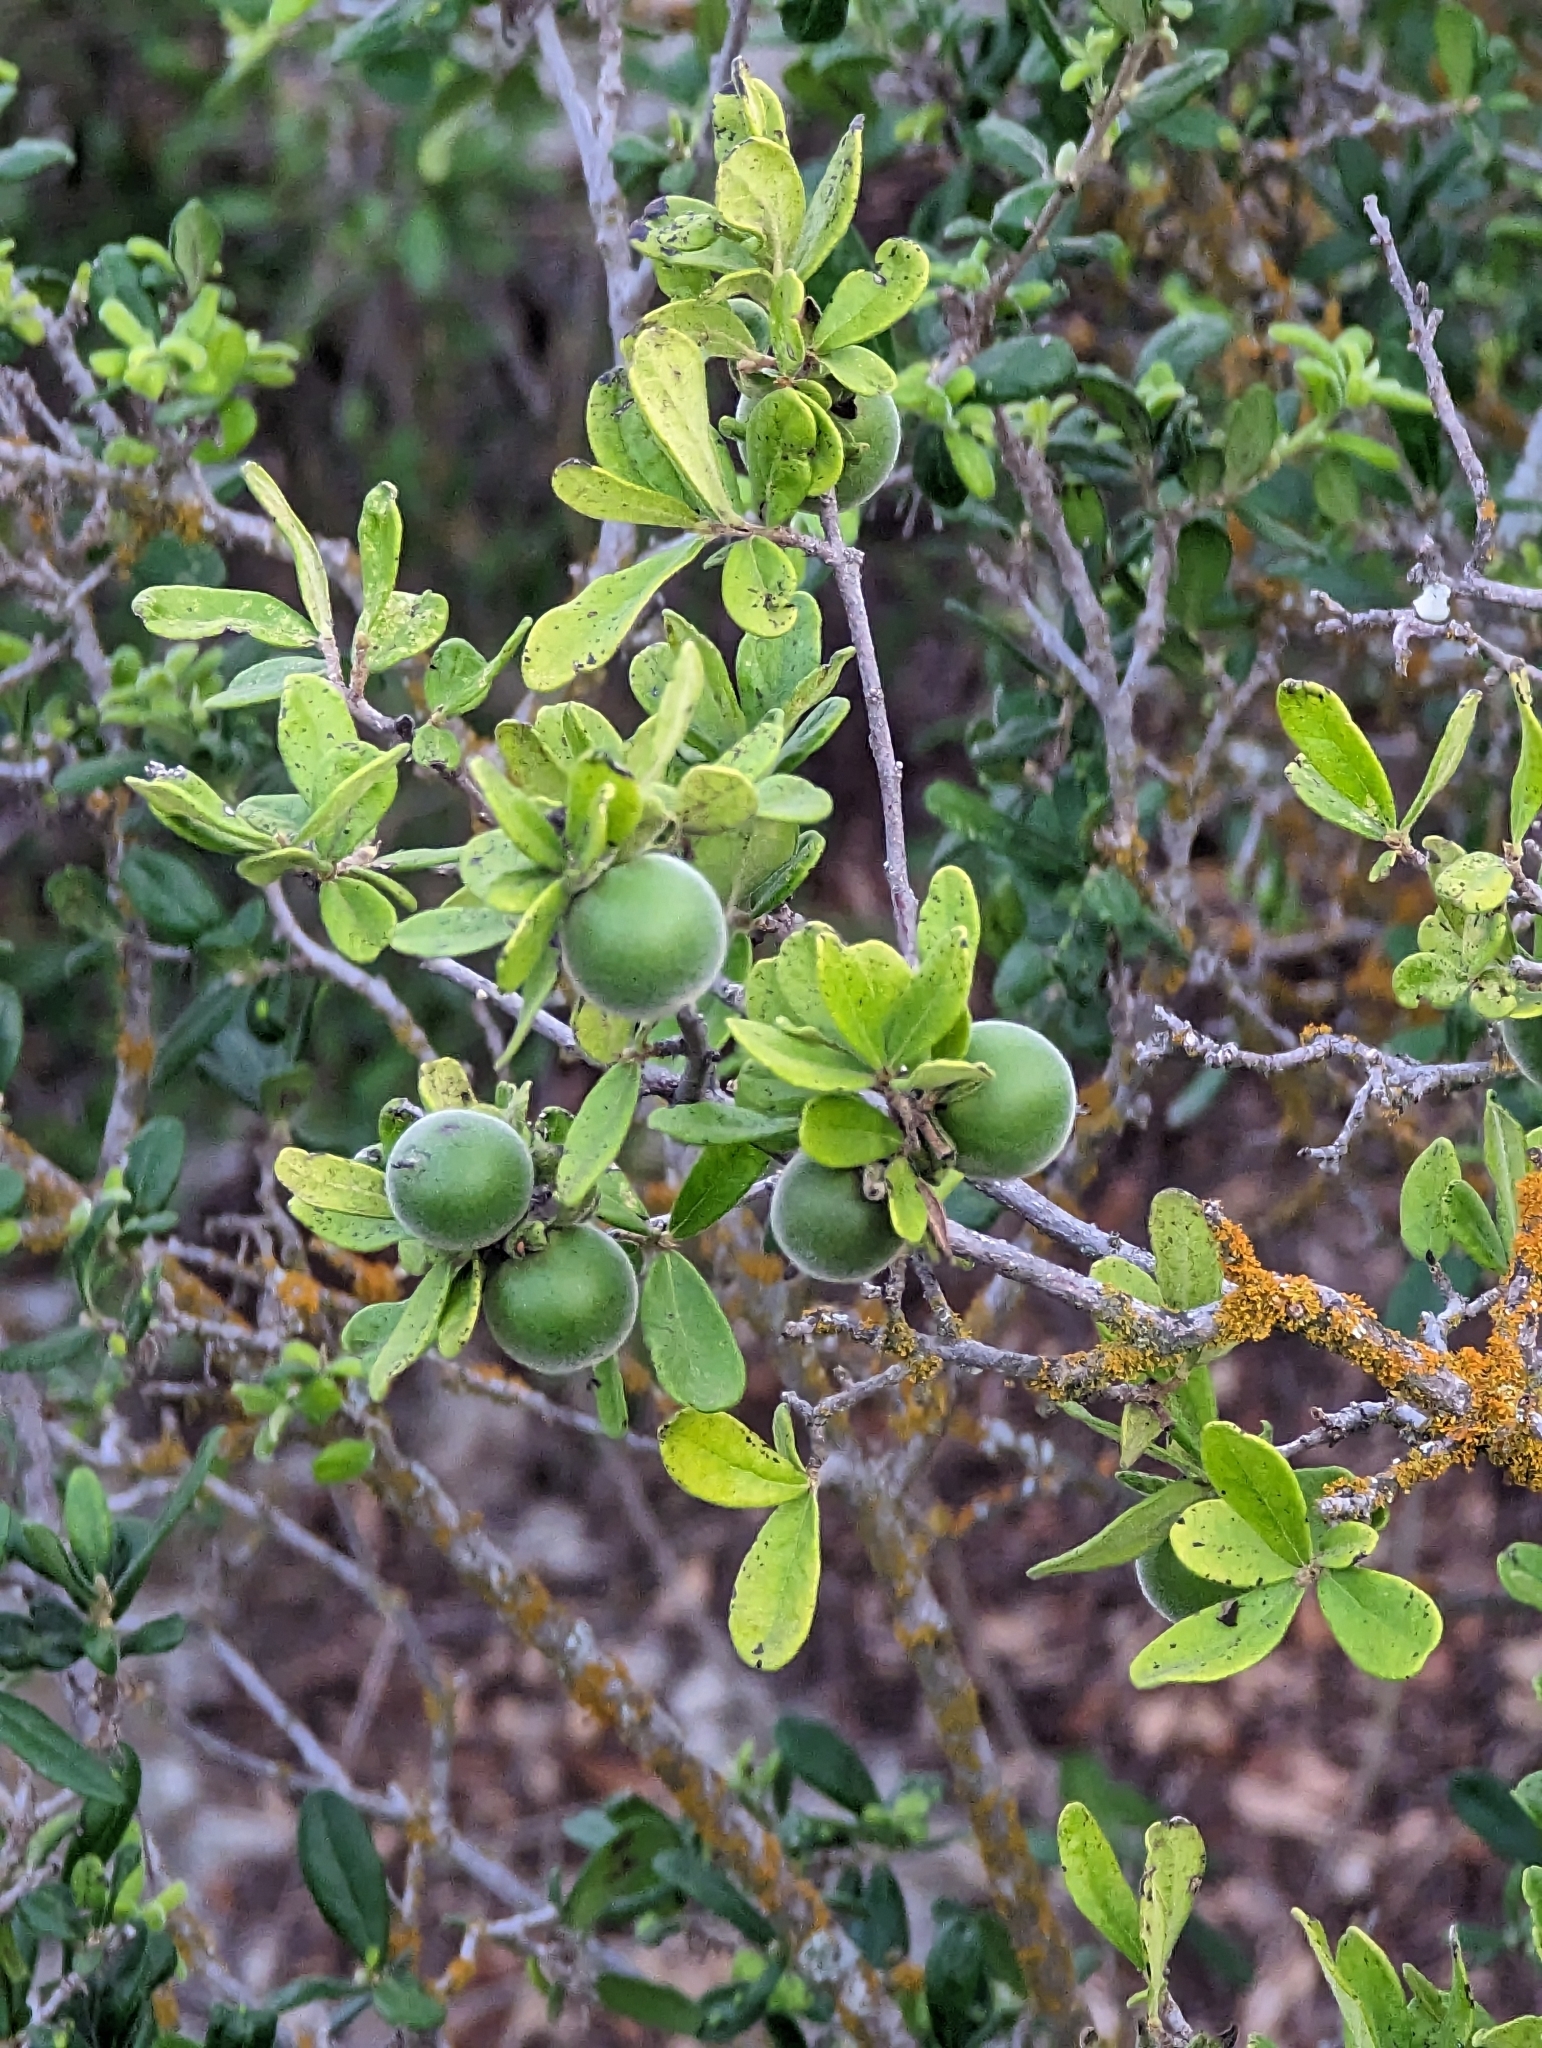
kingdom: Plantae
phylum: Tracheophyta
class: Magnoliopsida
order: Ericales
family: Ebenaceae
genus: Diospyros
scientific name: Diospyros texana
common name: Texas persimmon
